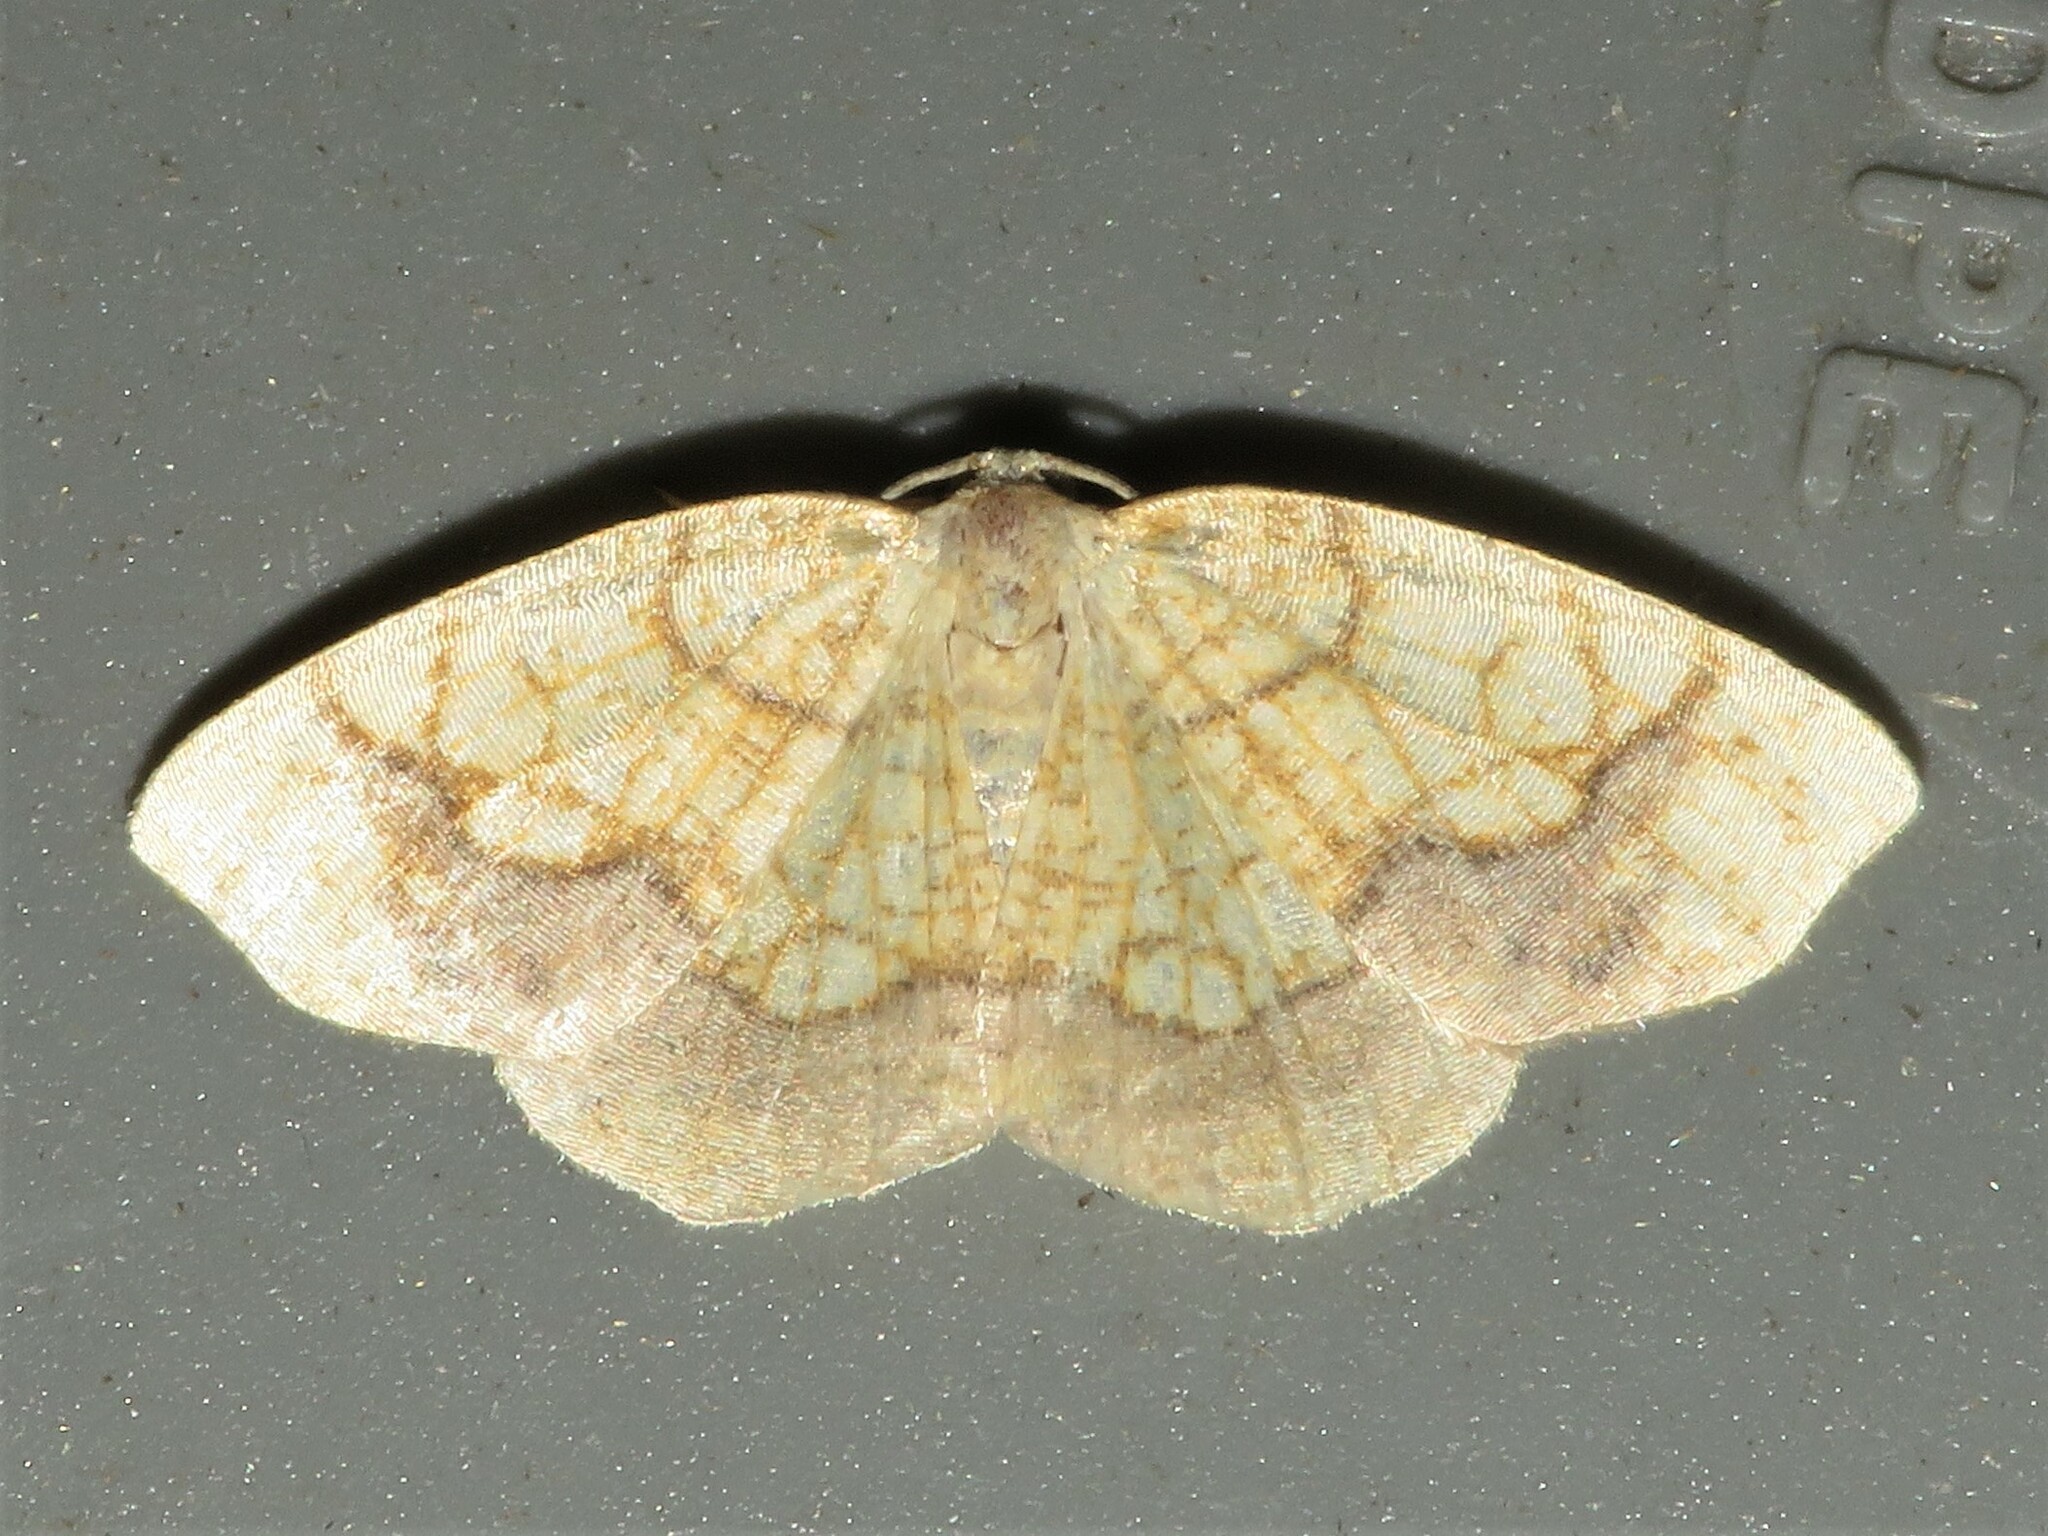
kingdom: Animalia
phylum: Arthropoda
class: Insecta
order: Lepidoptera
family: Geometridae
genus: Nematocampa
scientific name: Nematocampa resistaria
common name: Horned spanworm moth
